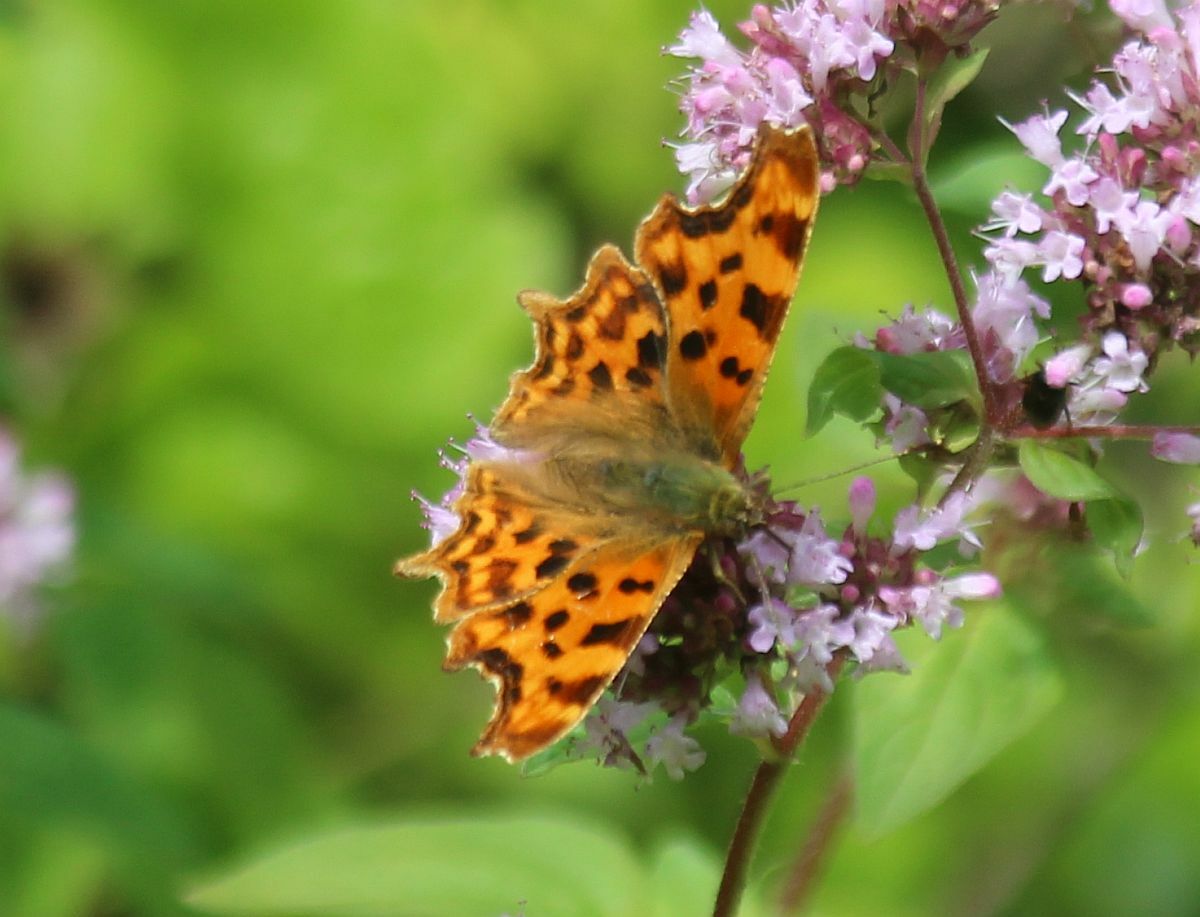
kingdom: Animalia
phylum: Arthropoda
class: Insecta
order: Lepidoptera
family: Nymphalidae
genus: Polygonia
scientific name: Polygonia c-album
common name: Comma
